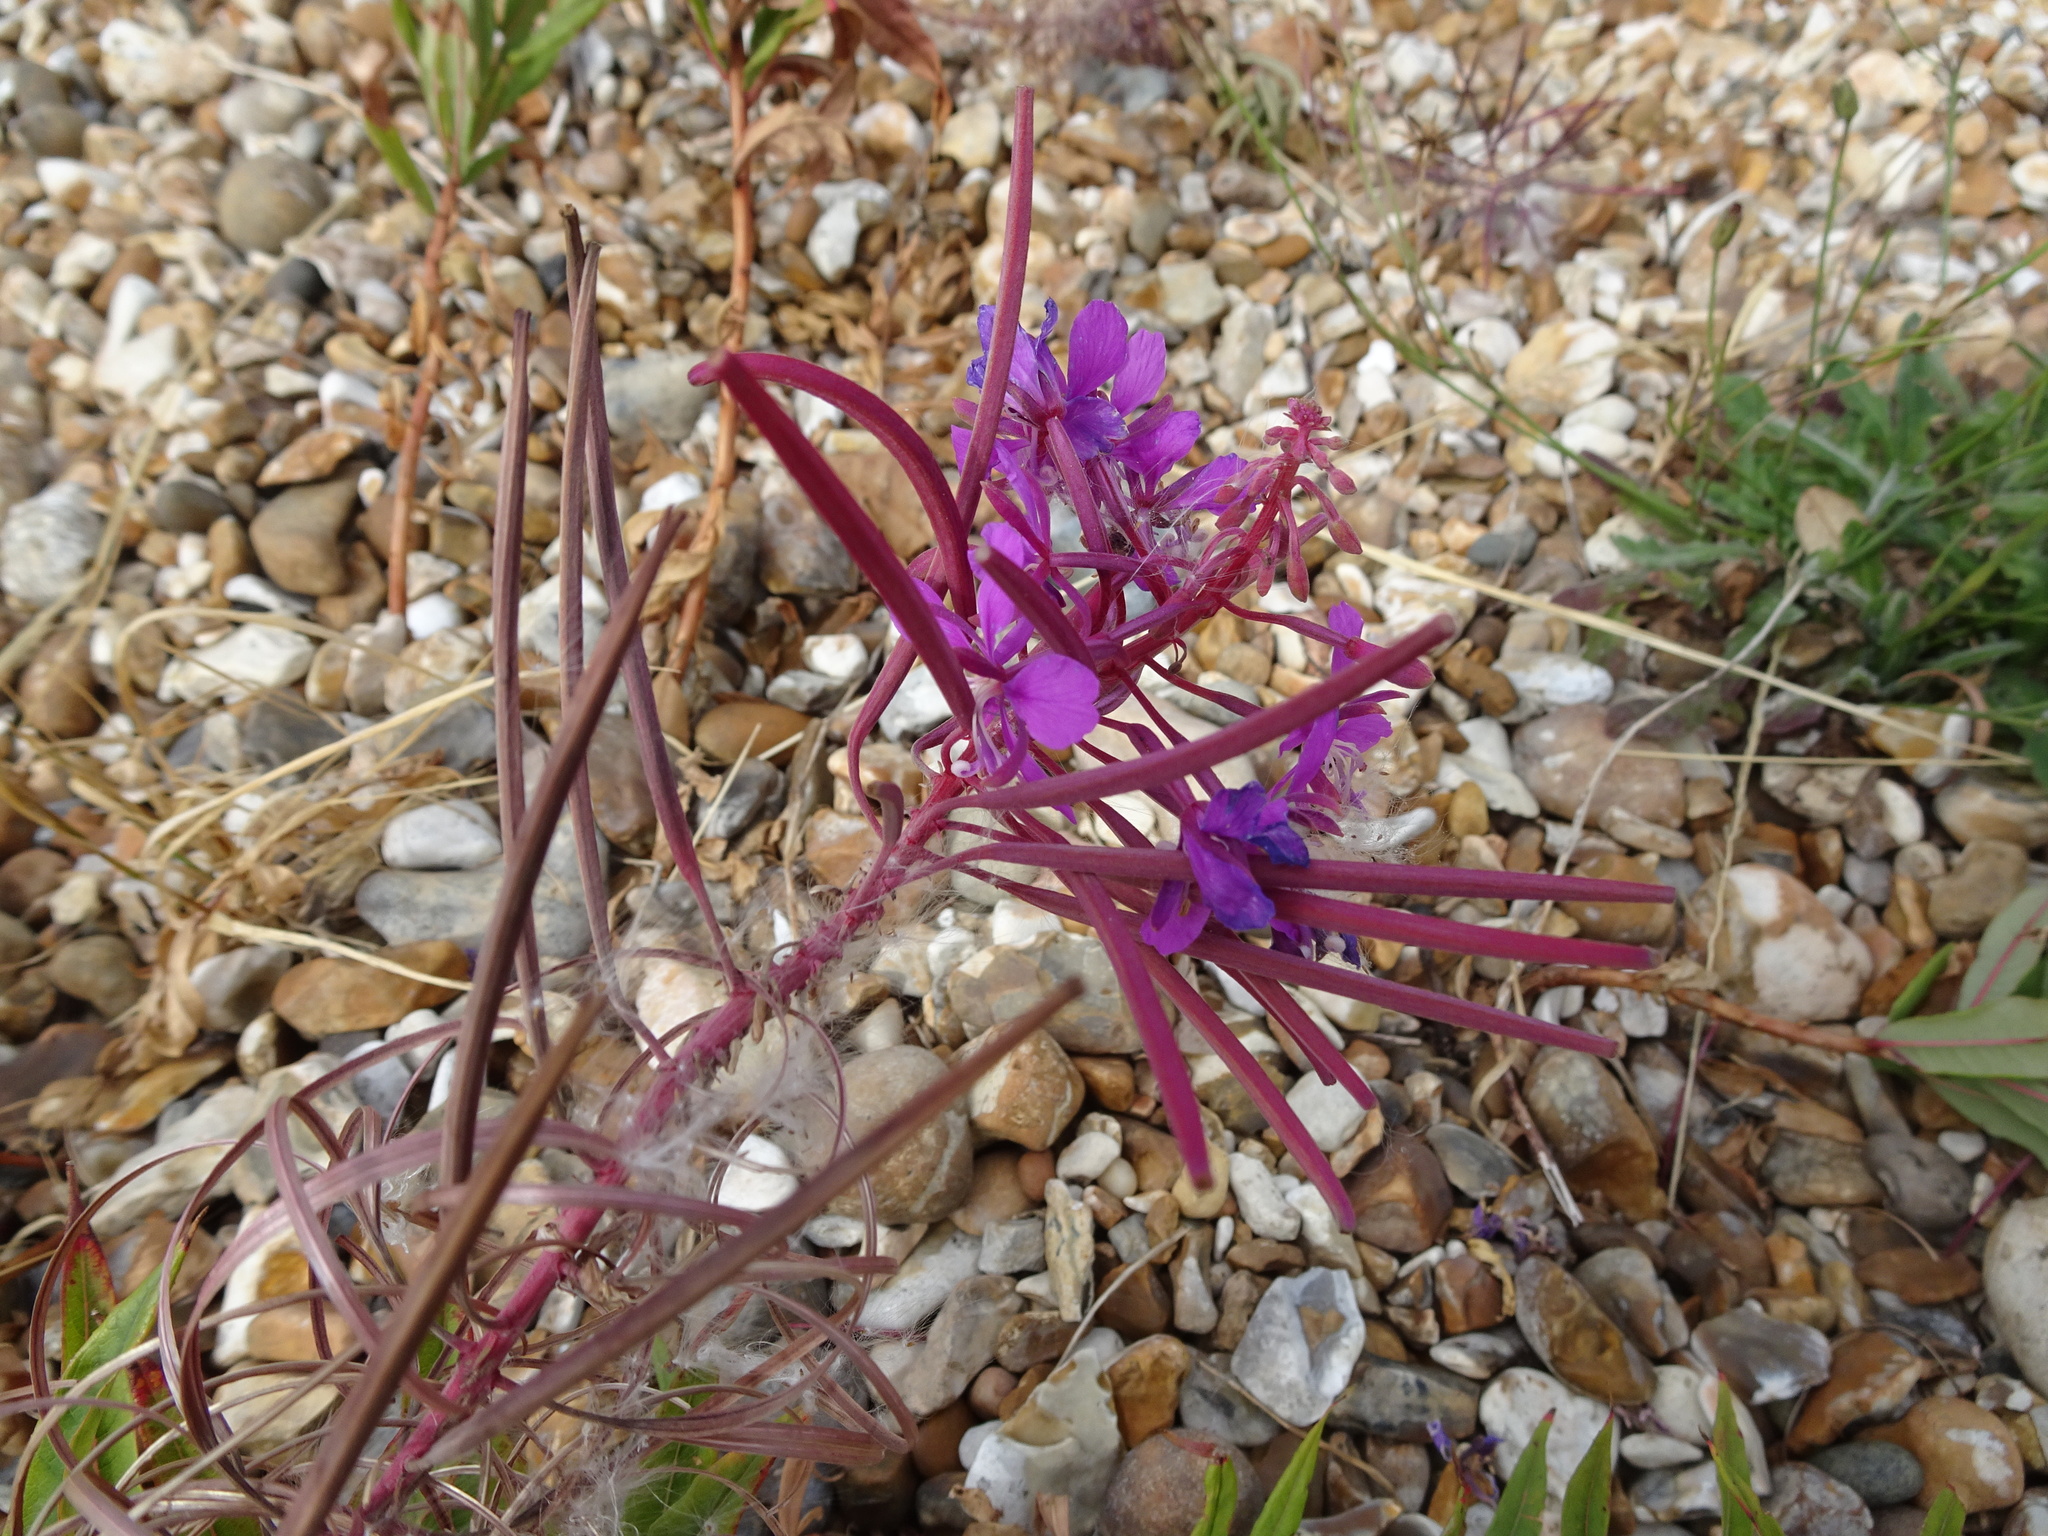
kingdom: Plantae
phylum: Tracheophyta
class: Magnoliopsida
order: Myrtales
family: Onagraceae
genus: Chamaenerion
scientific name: Chamaenerion angustifolium
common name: Fireweed
